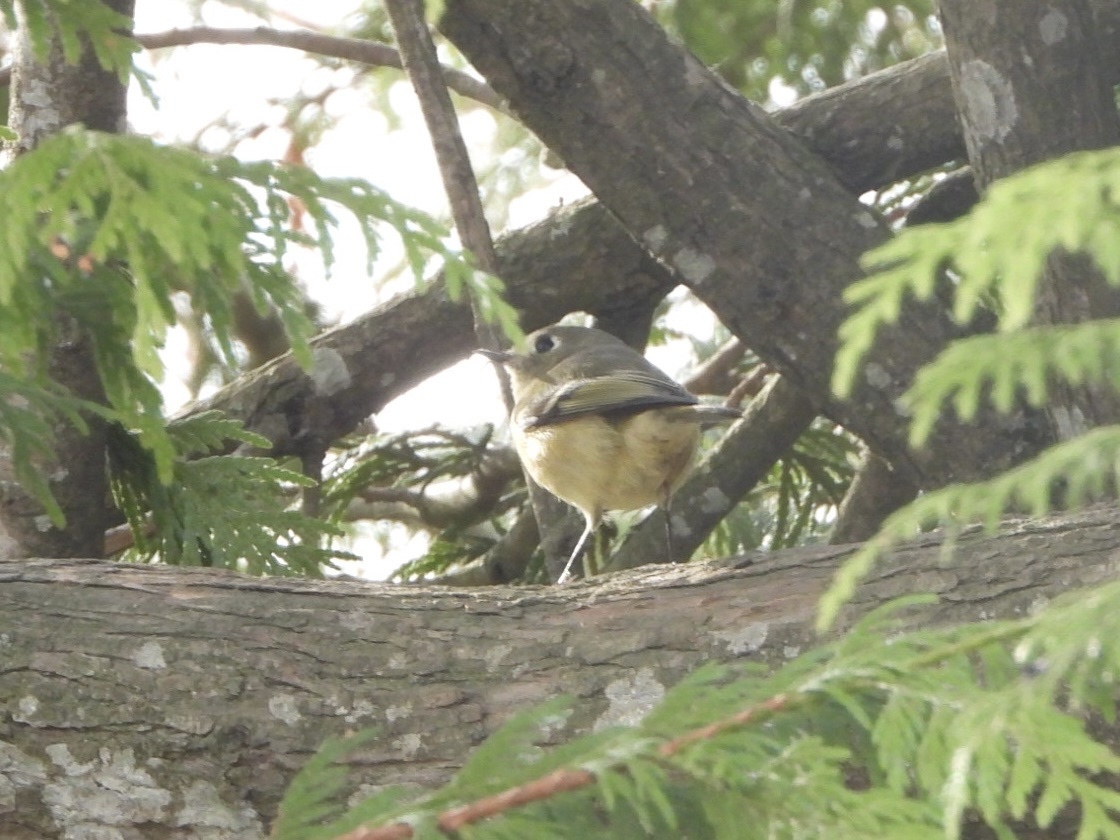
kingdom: Animalia
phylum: Chordata
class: Aves
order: Passeriformes
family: Regulidae
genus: Regulus
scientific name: Regulus calendula
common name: Ruby-crowned kinglet
